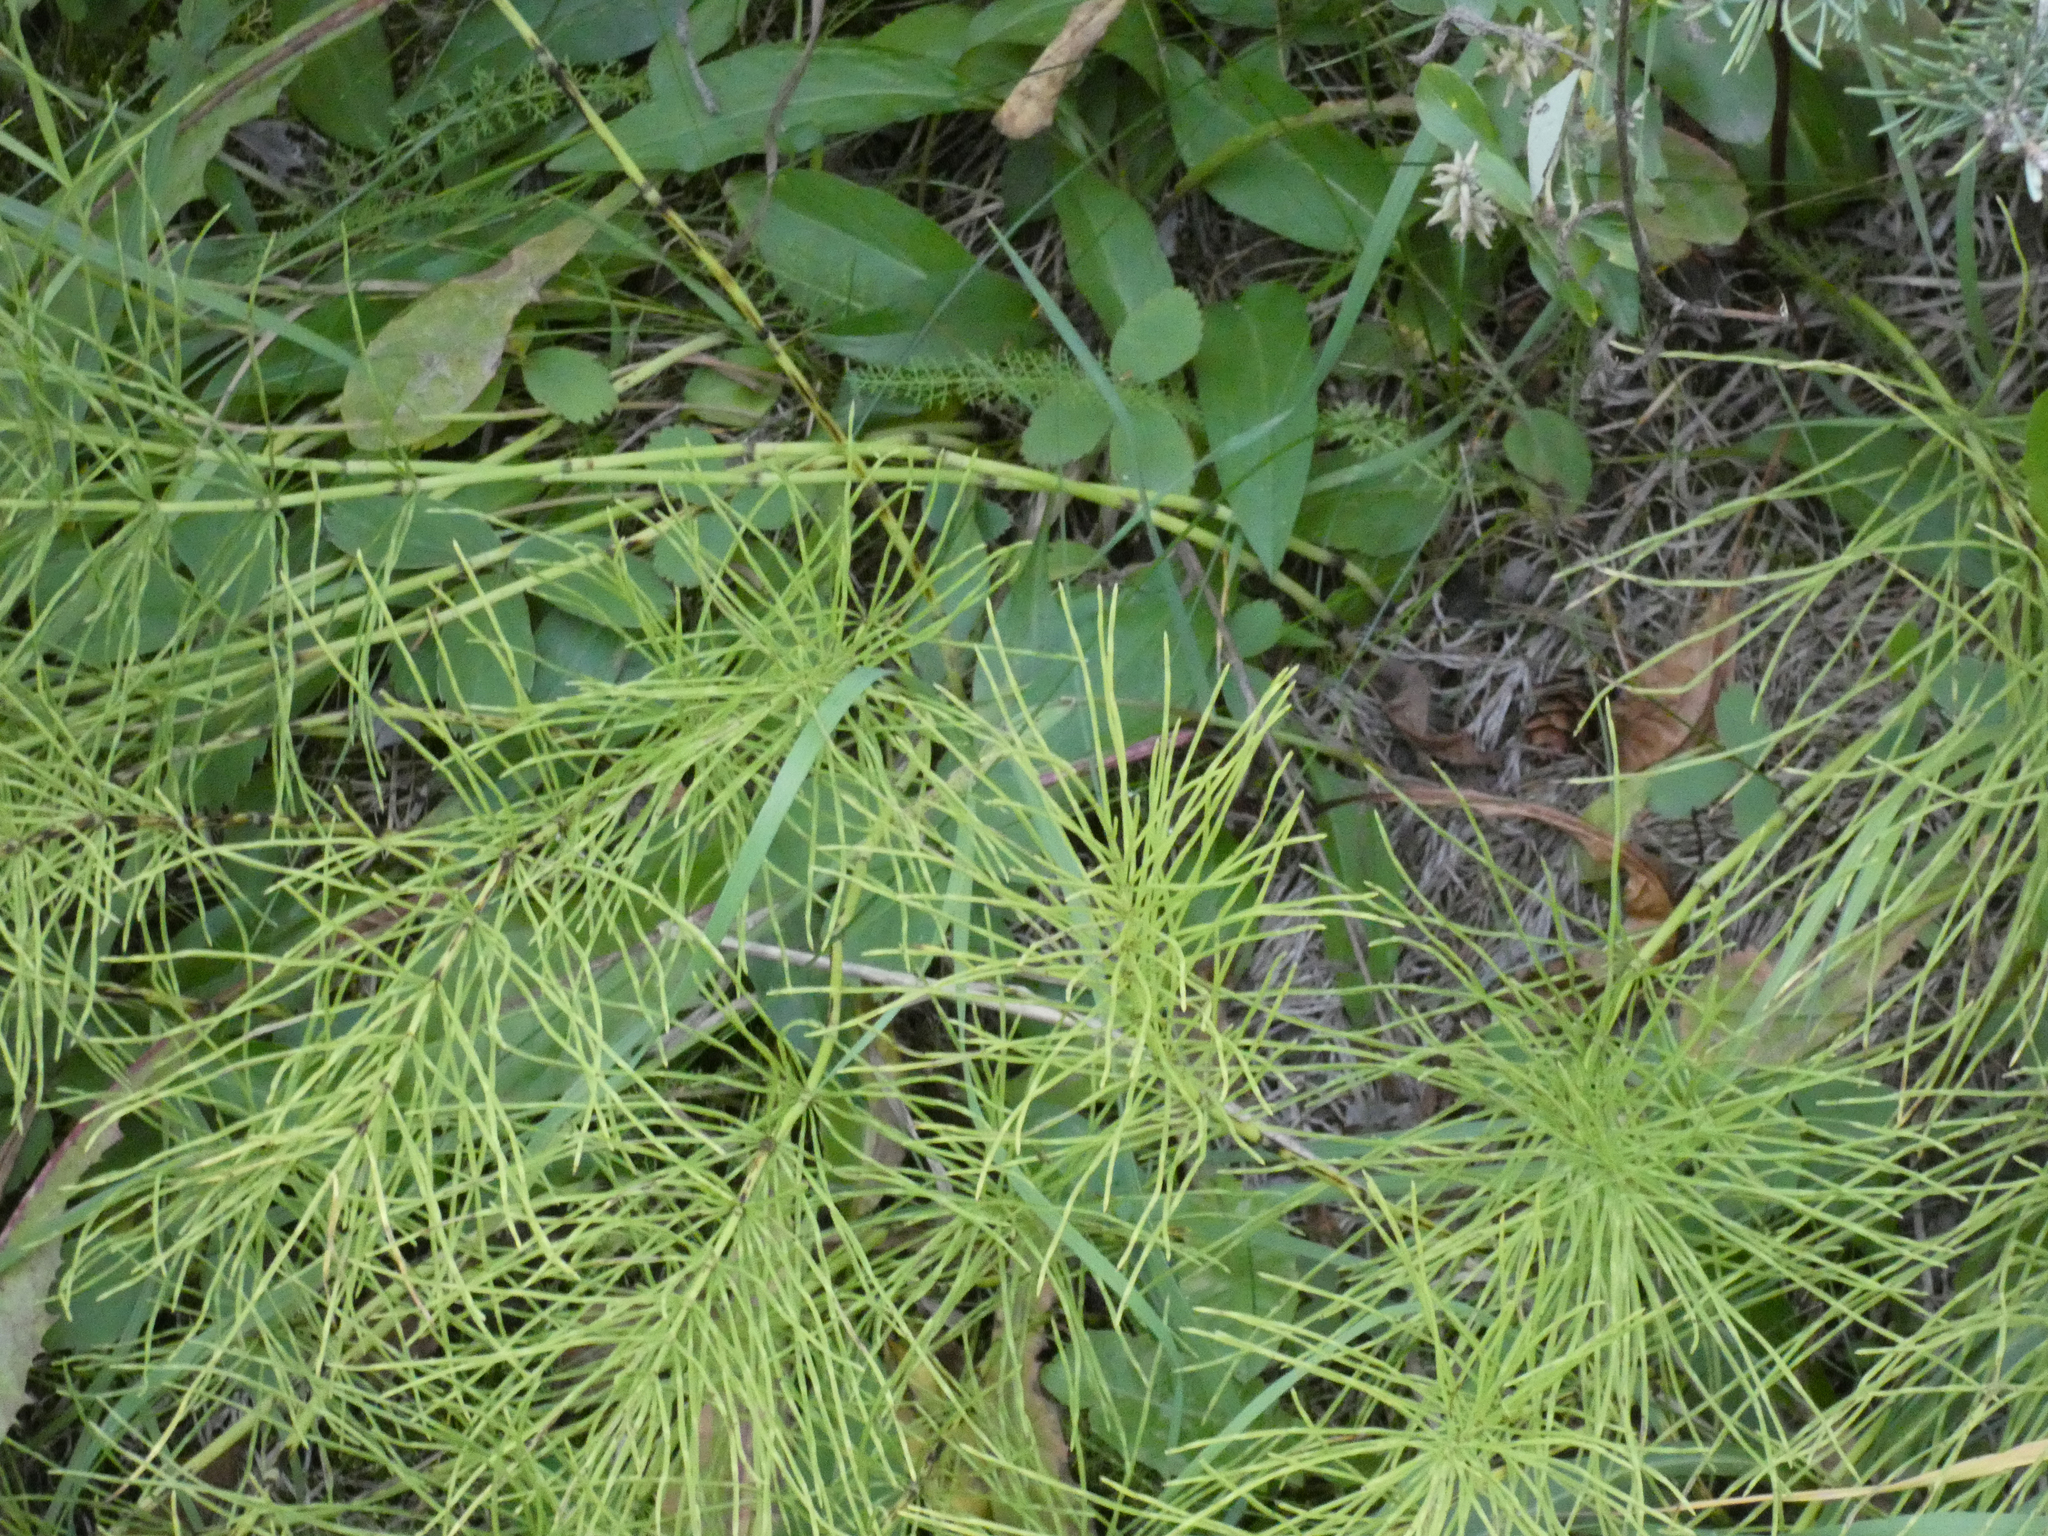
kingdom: Plantae
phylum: Tracheophyta
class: Polypodiopsida
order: Equisetales
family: Equisetaceae
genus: Equisetum
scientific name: Equisetum arvense
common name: Field horsetail
